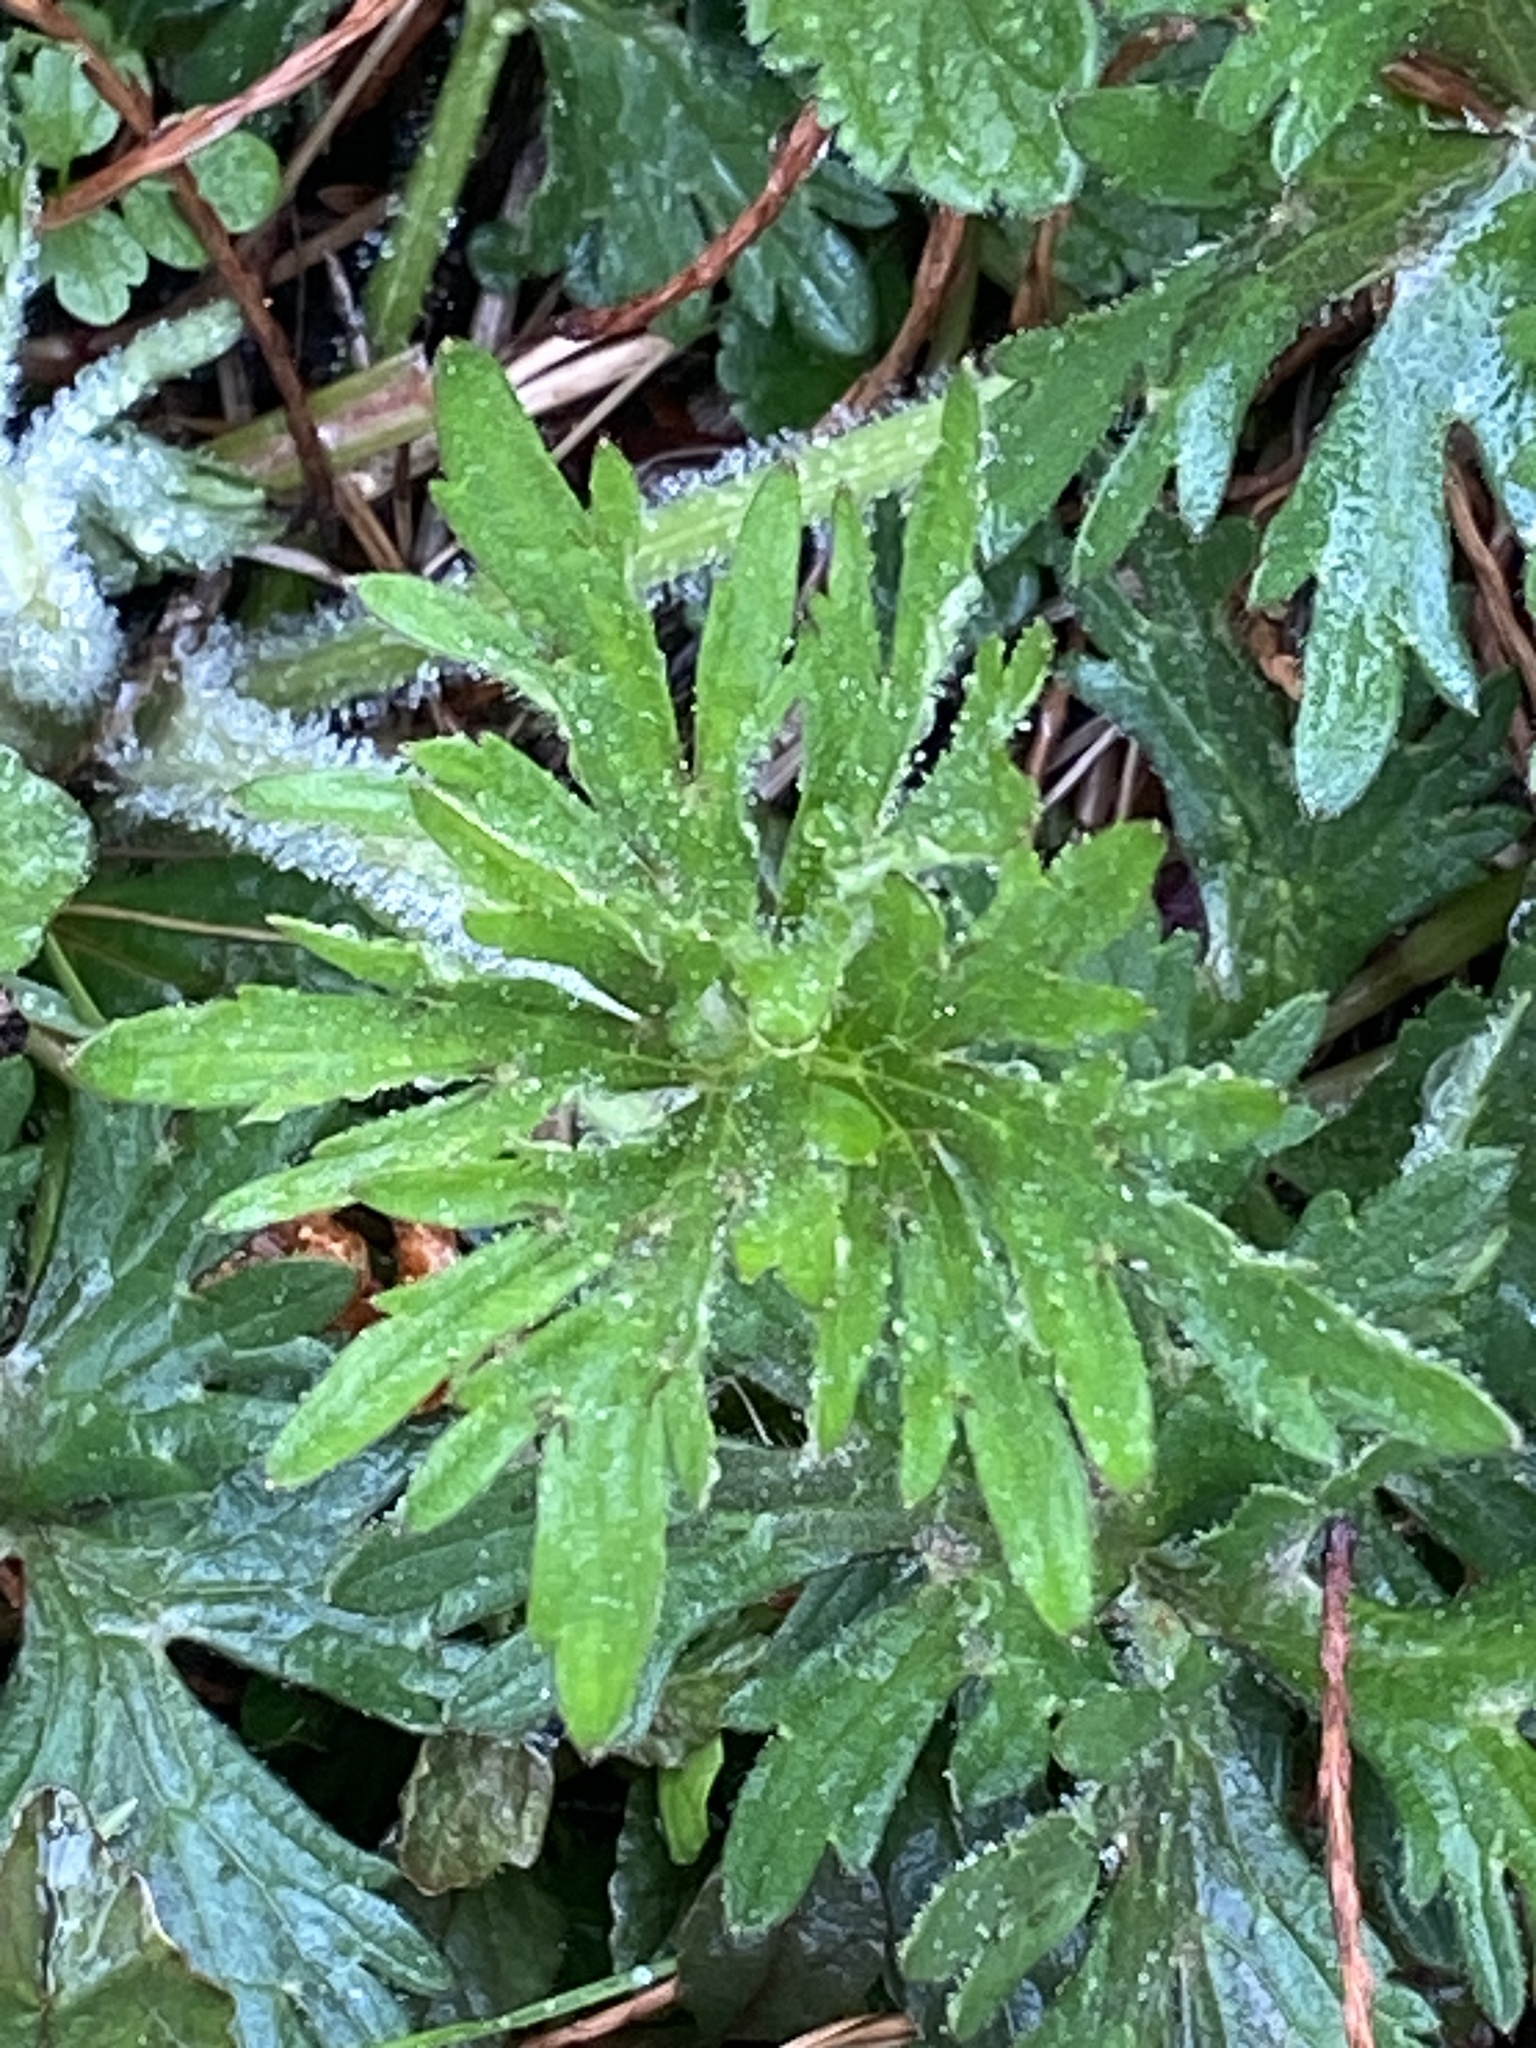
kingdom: Plantae
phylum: Tracheophyta
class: Magnoliopsida
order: Ranunculales
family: Ranunculaceae
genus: Ranunculus
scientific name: Ranunculus acris
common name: Meadow buttercup
